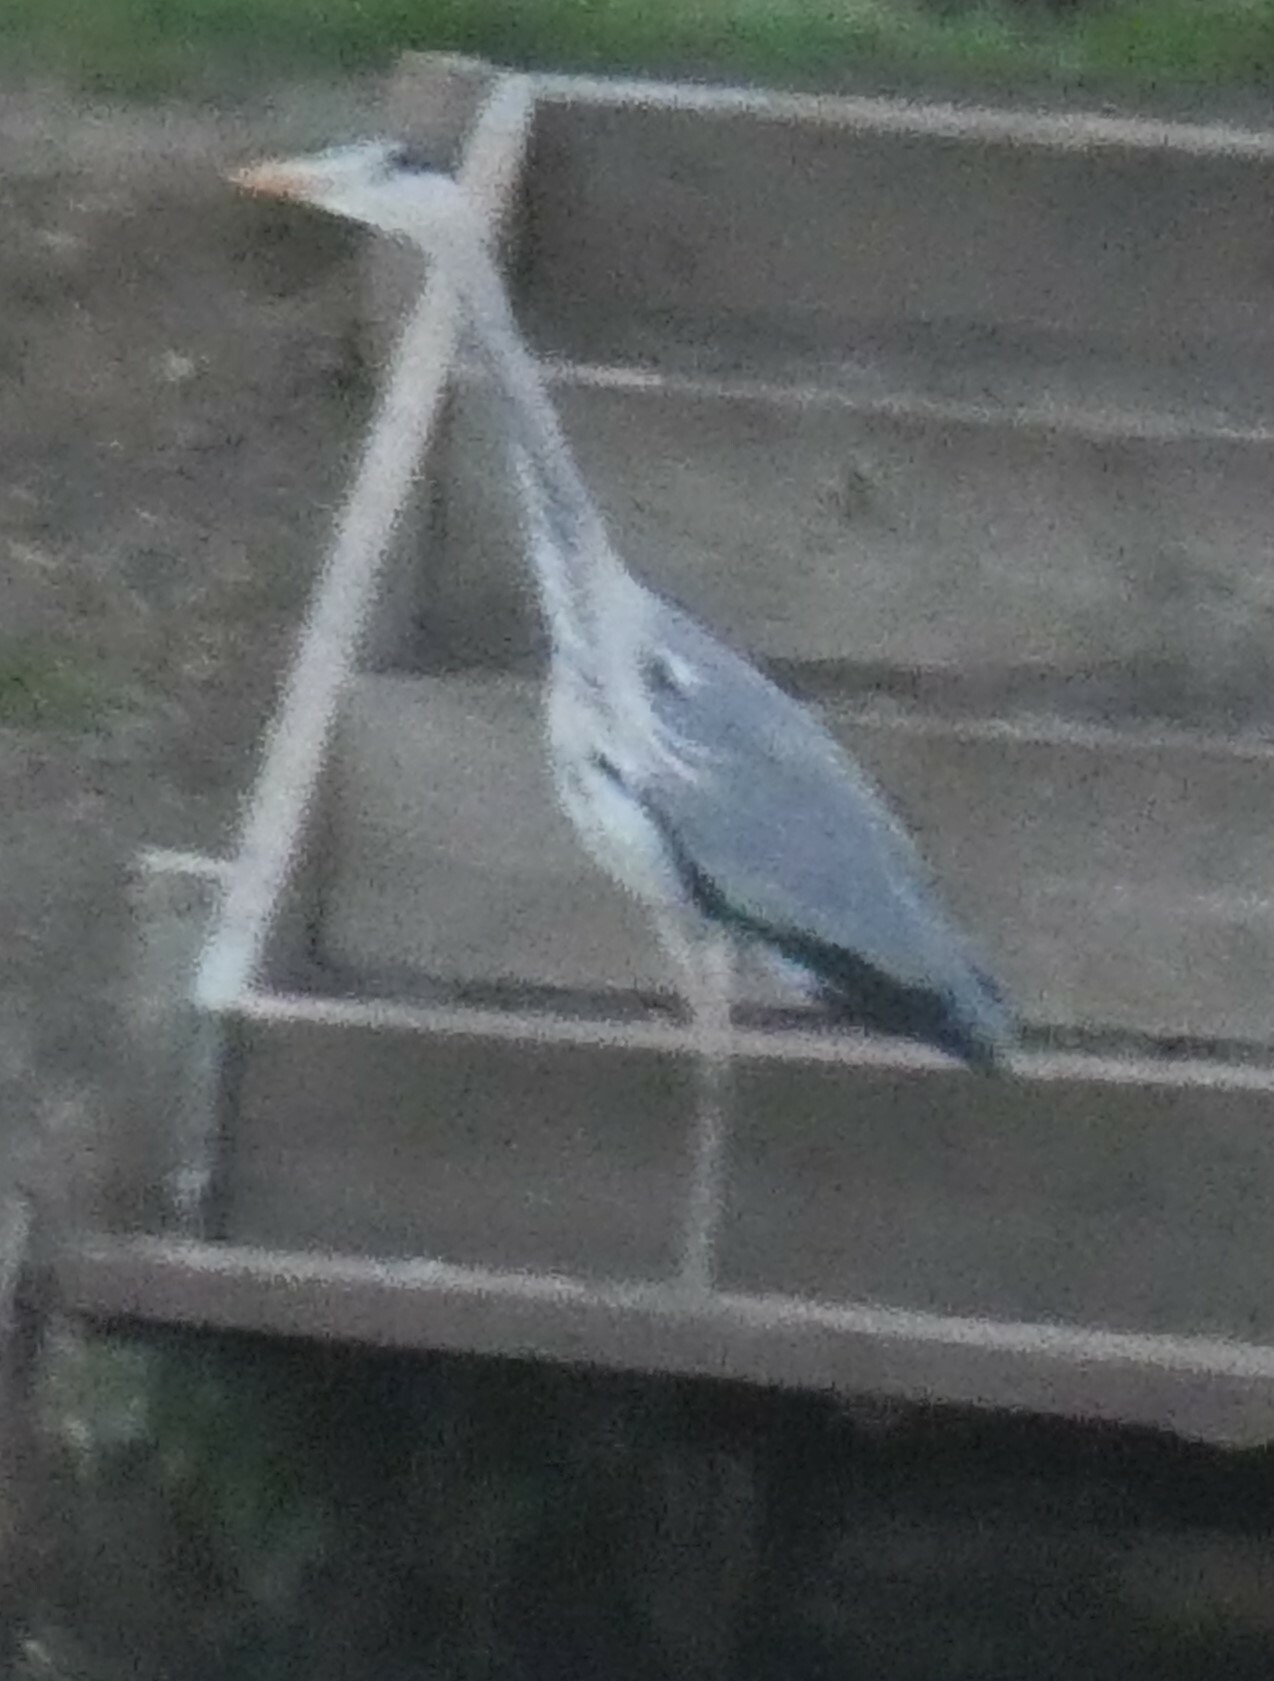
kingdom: Animalia
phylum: Chordata
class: Aves
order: Pelecaniformes
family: Ardeidae
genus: Ardea
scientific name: Ardea cinerea
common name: Grey heron
